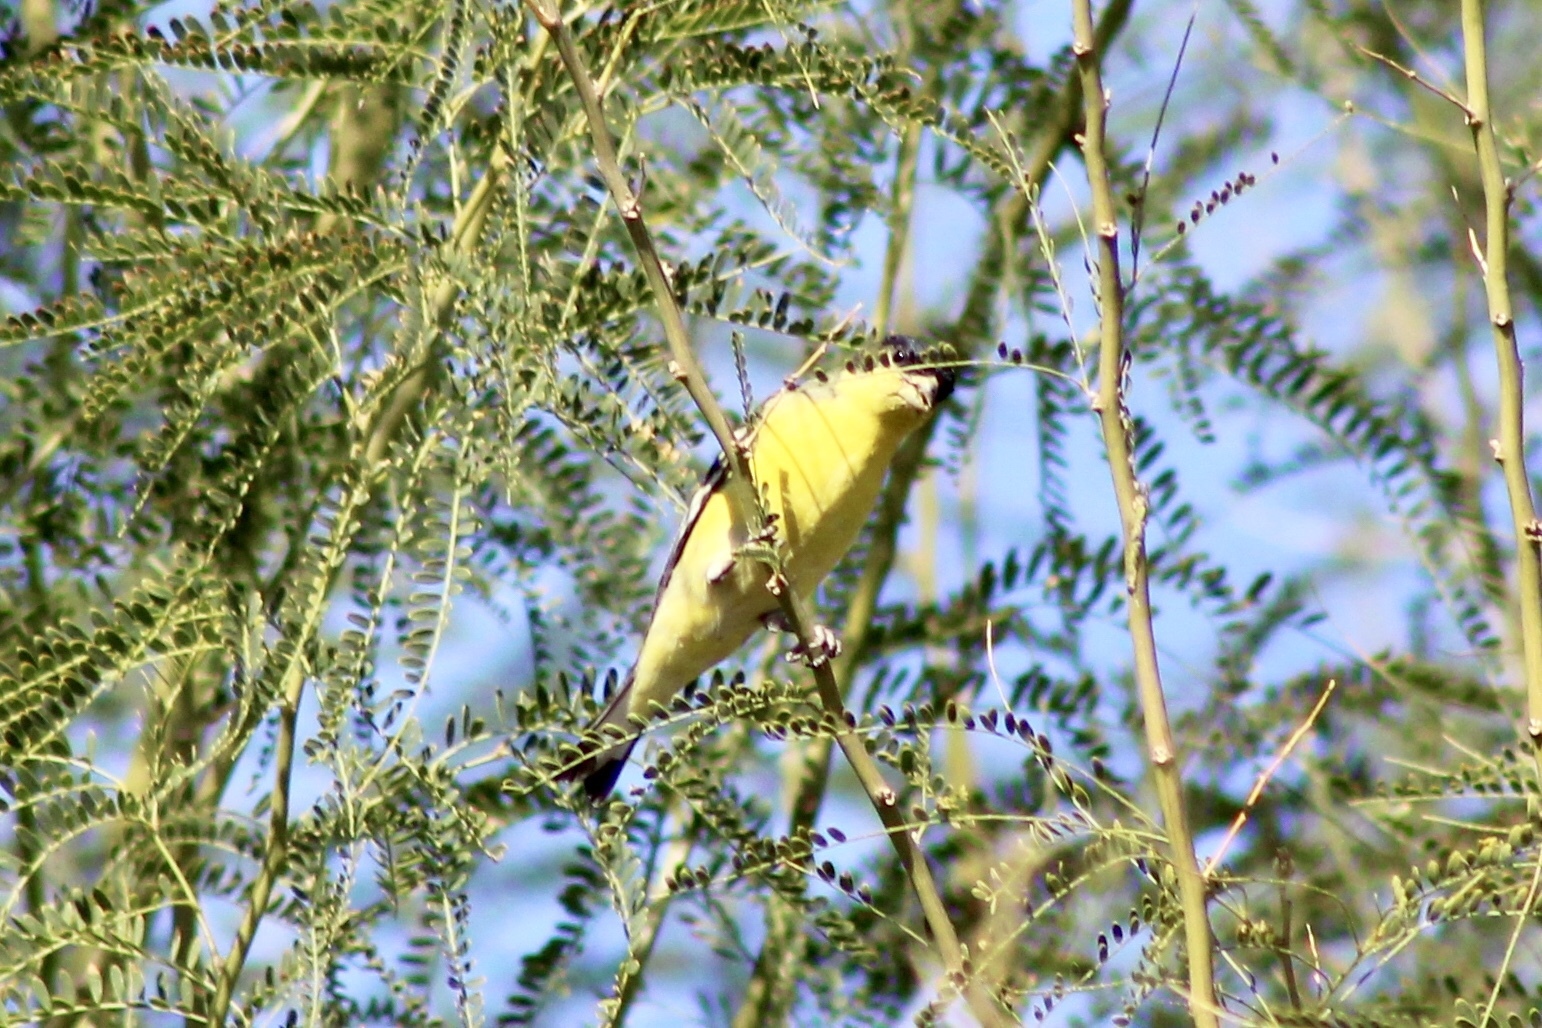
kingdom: Animalia
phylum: Chordata
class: Aves
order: Passeriformes
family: Fringillidae
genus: Spinus
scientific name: Spinus psaltria
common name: Lesser goldfinch
